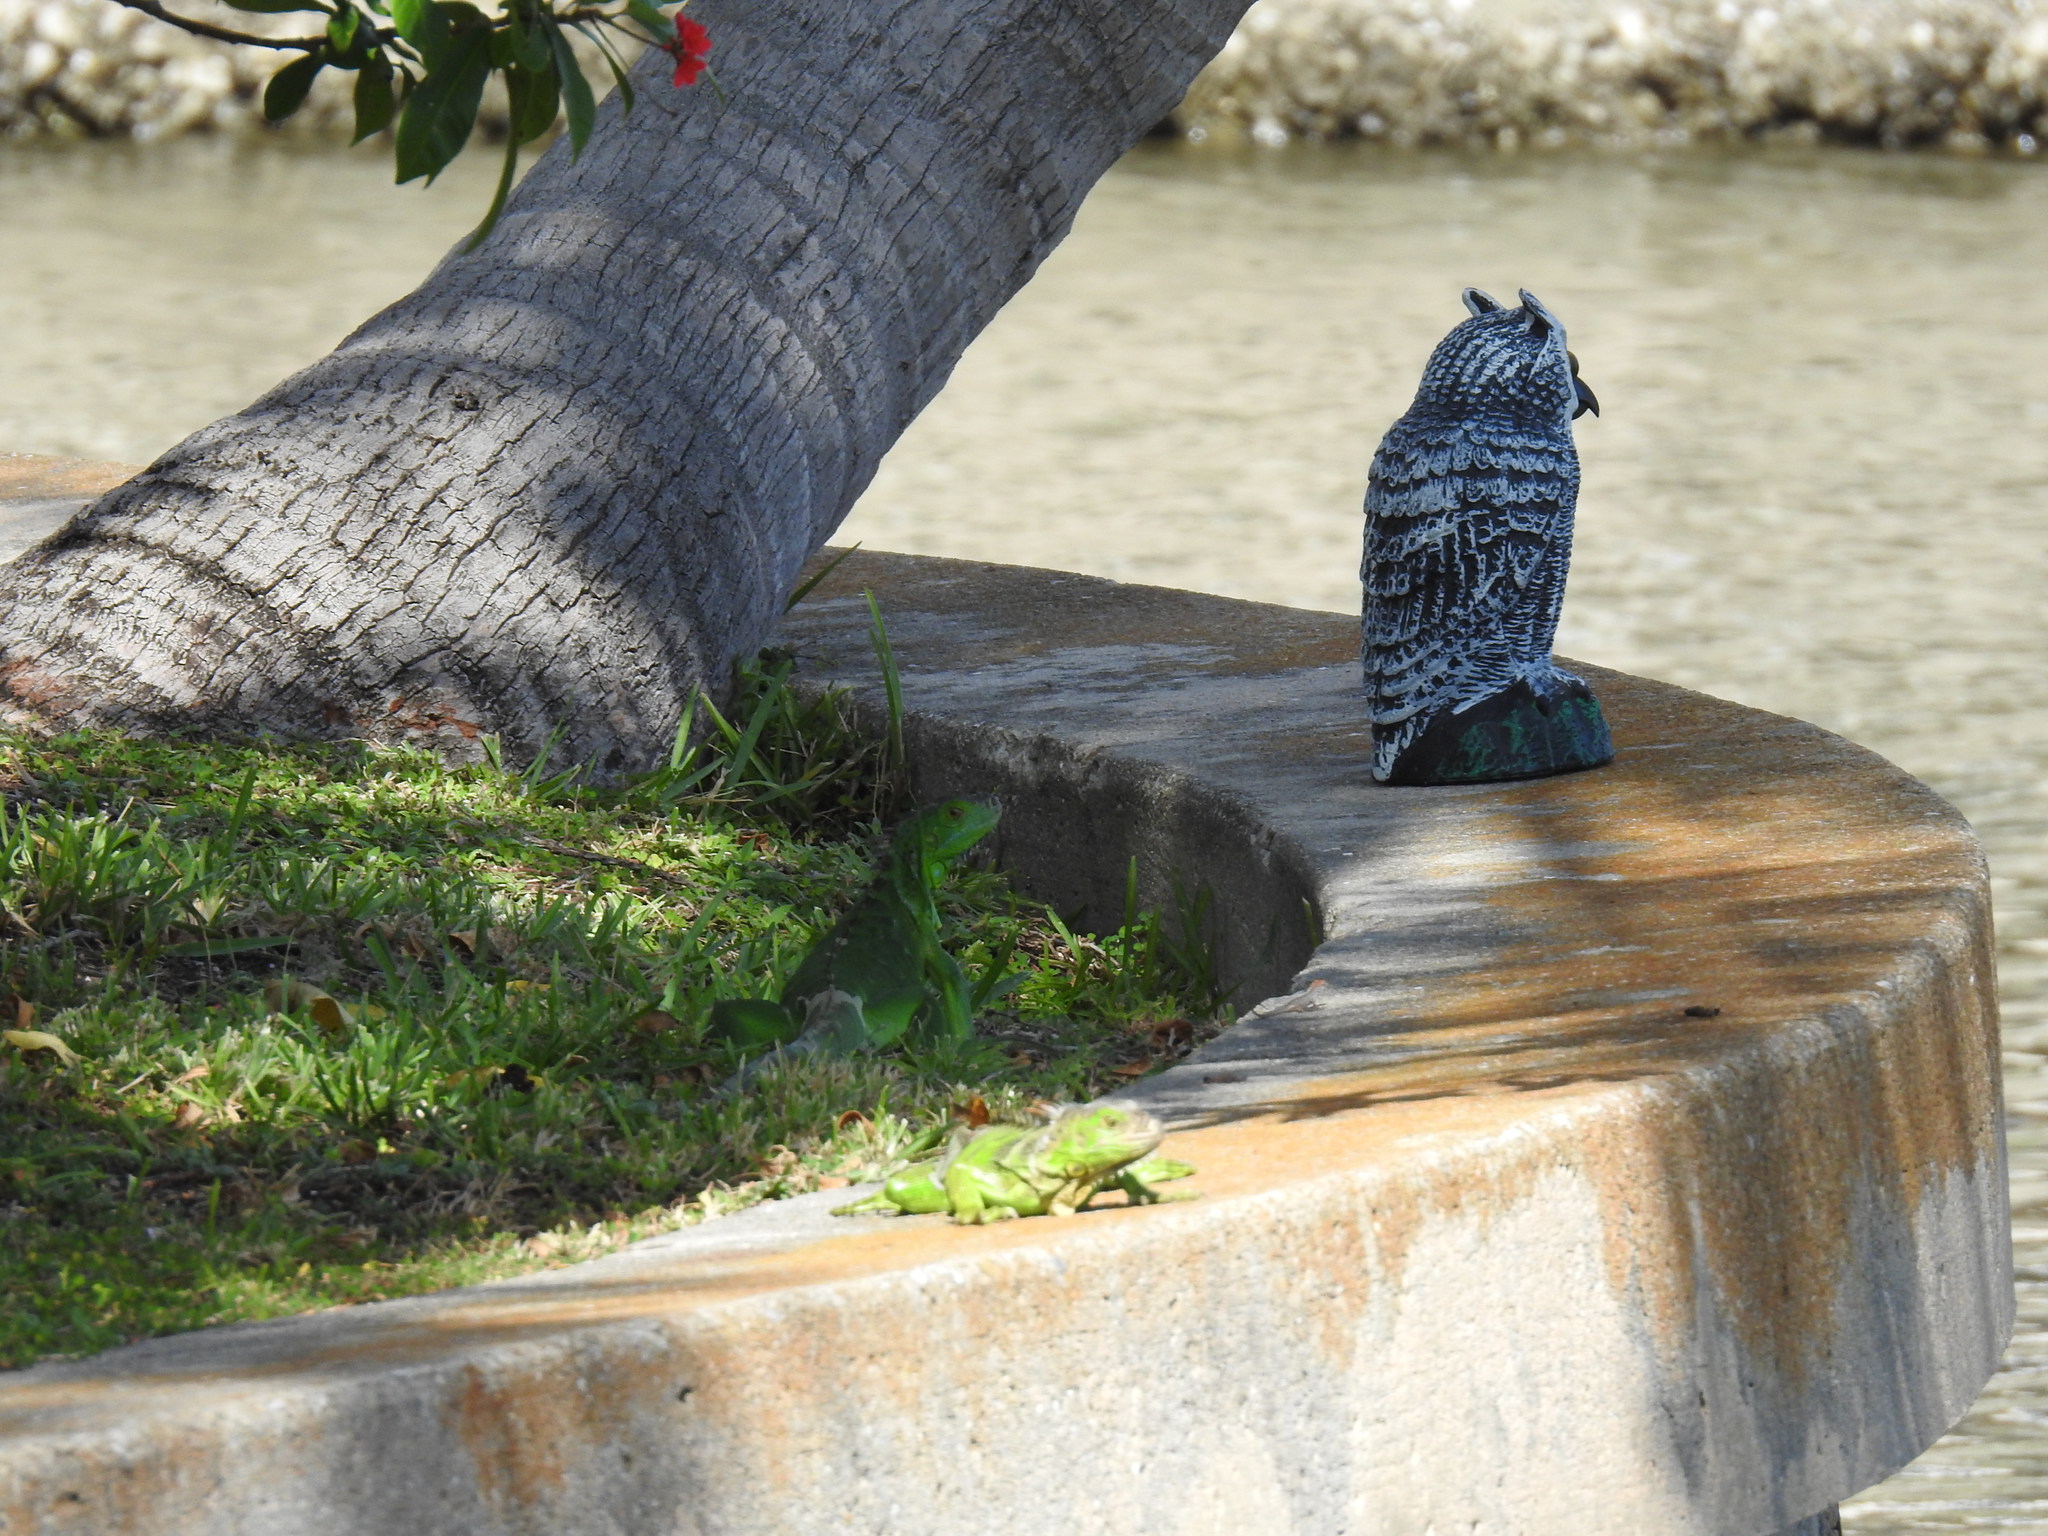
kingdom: Animalia
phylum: Chordata
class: Squamata
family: Iguanidae
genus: Iguana
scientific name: Iguana iguana
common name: Green iguana
